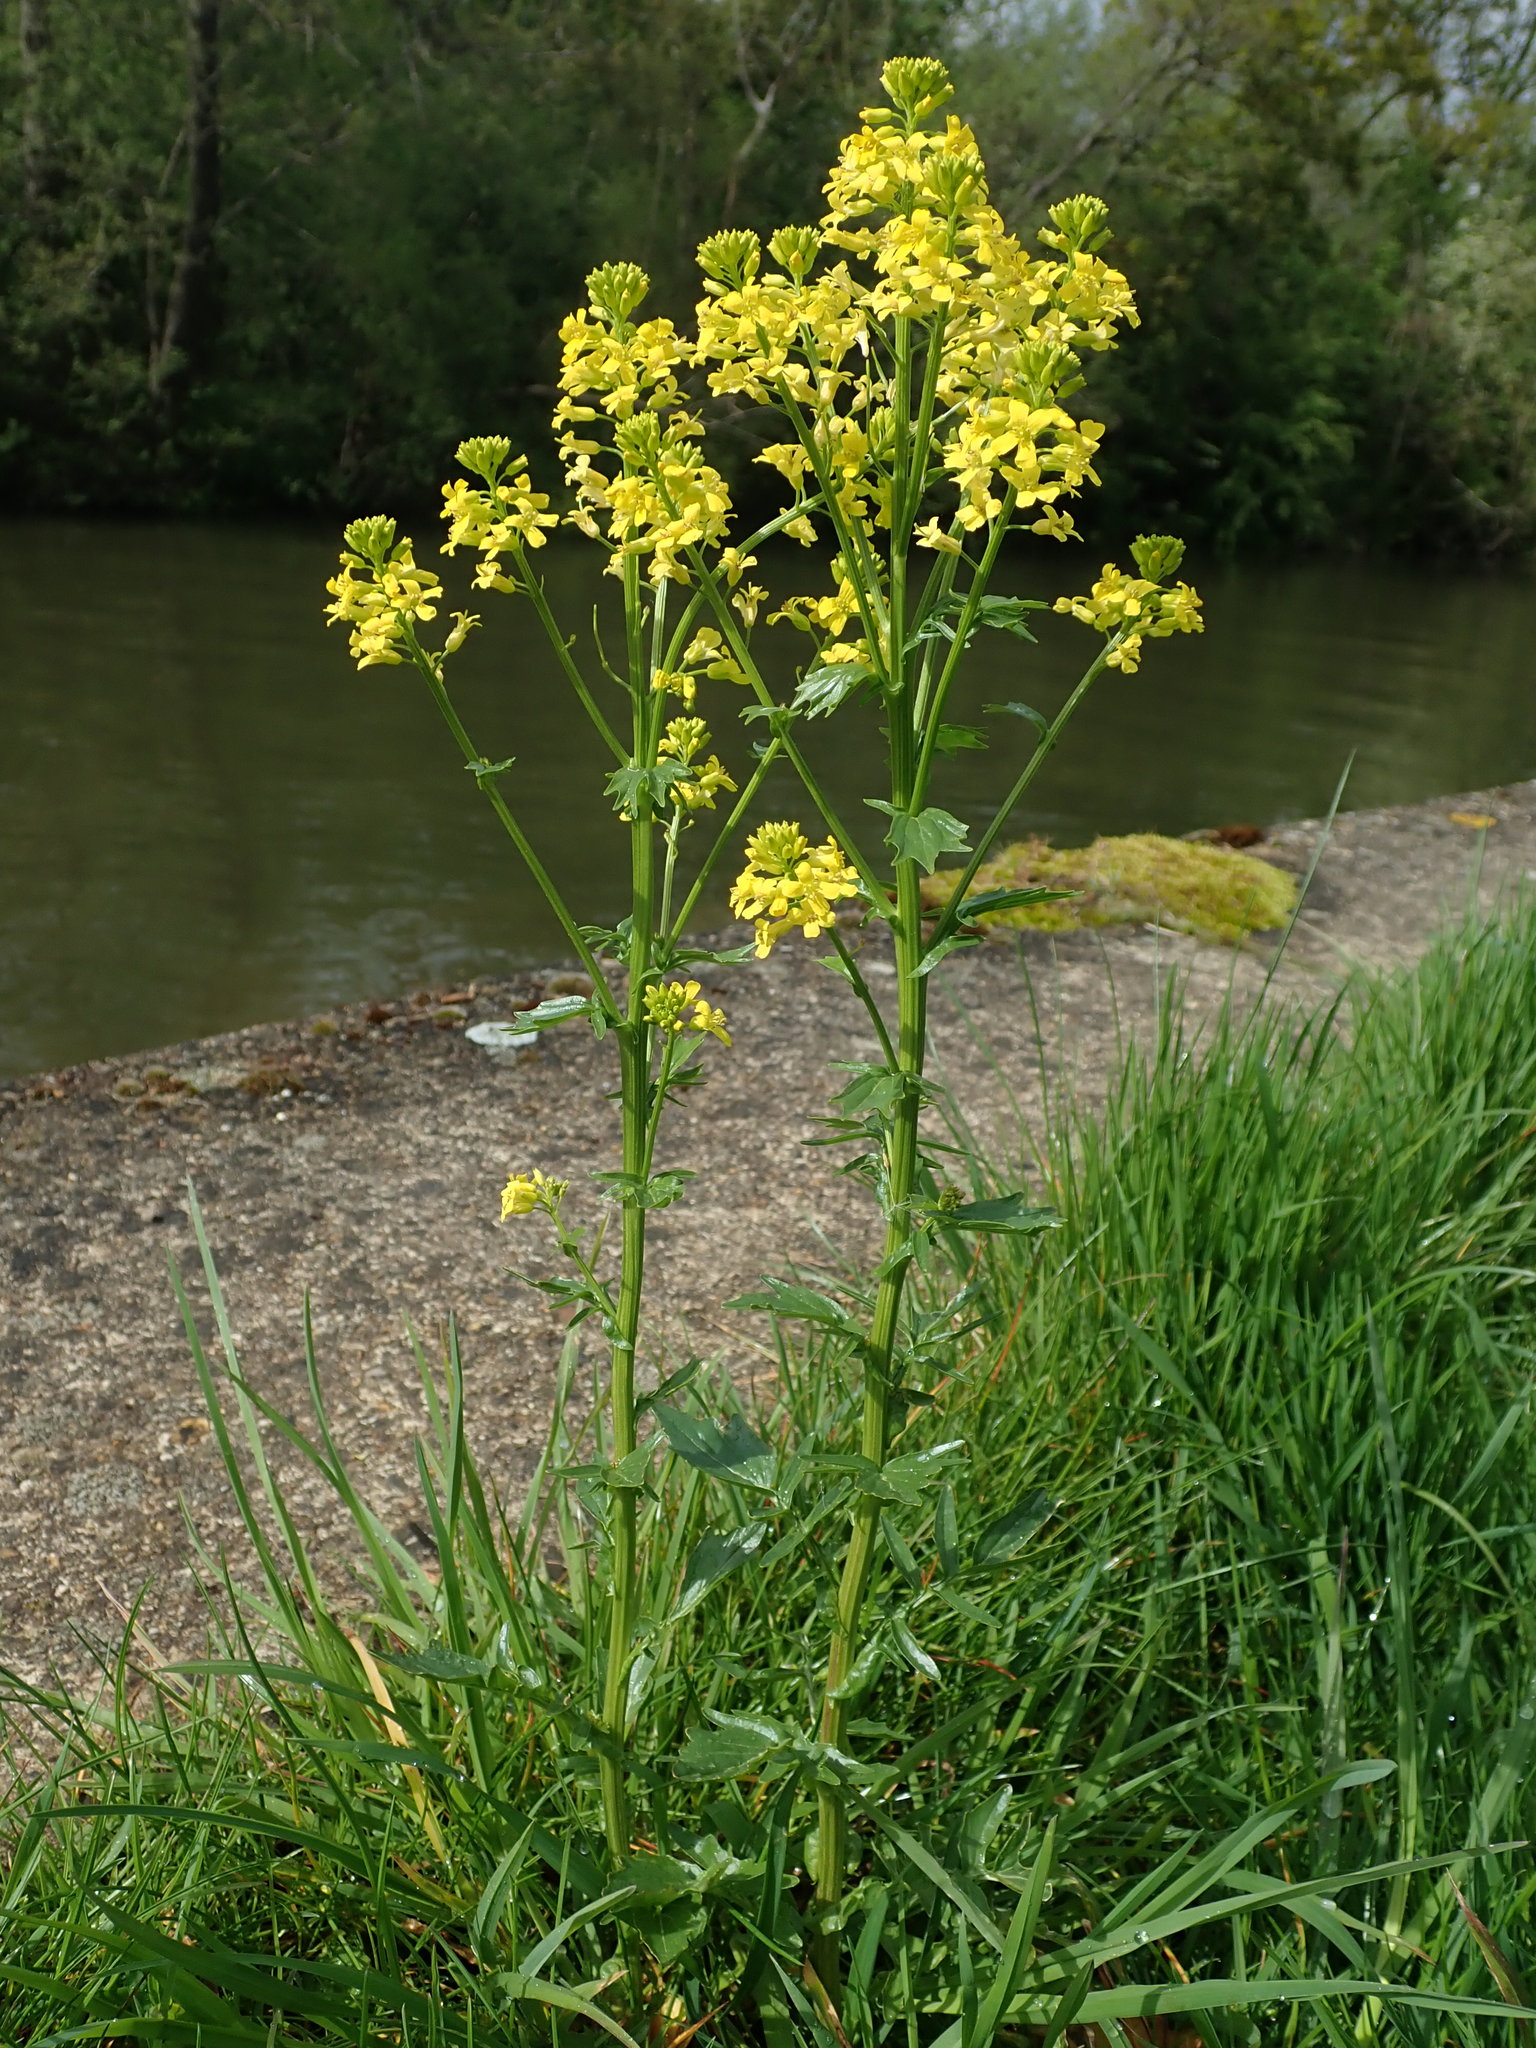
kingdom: Plantae
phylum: Tracheophyta
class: Magnoliopsida
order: Brassicales
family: Brassicaceae
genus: Barbarea
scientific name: Barbarea vulgaris
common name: Cressy-greens
